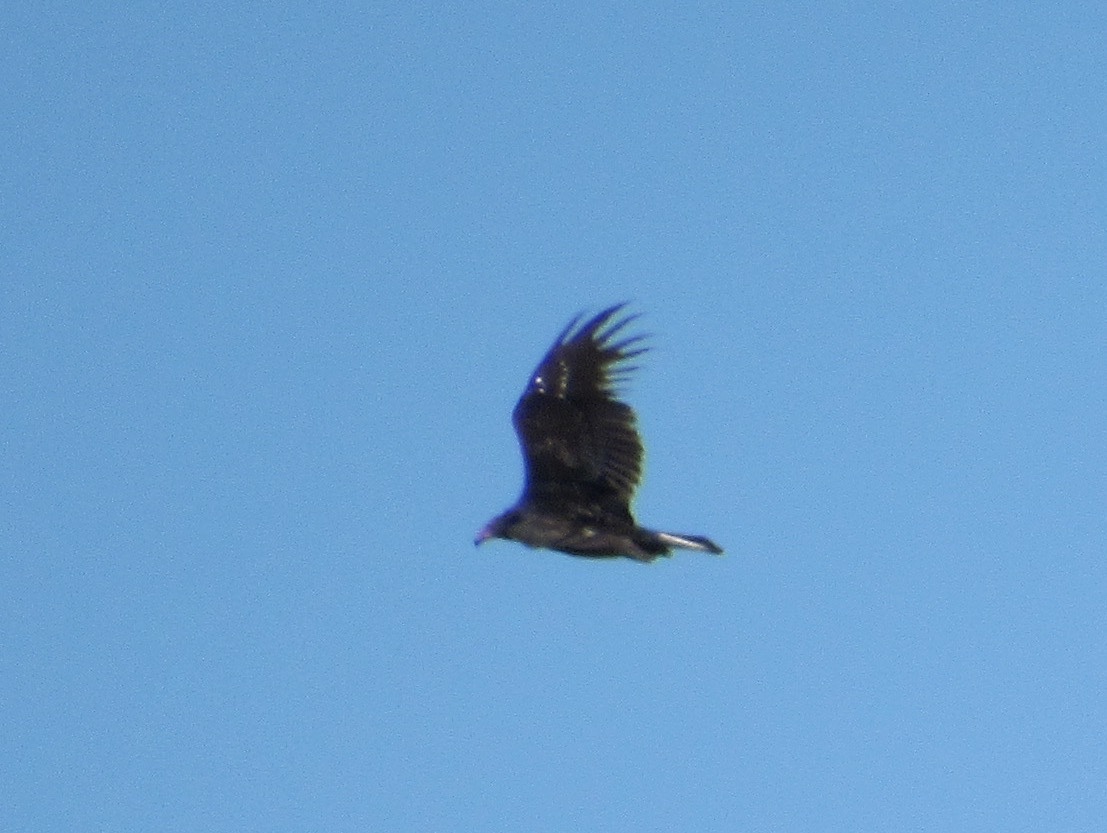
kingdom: Animalia
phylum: Chordata
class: Aves
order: Accipitriformes
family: Cathartidae
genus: Cathartes
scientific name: Cathartes aura
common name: Turkey vulture
